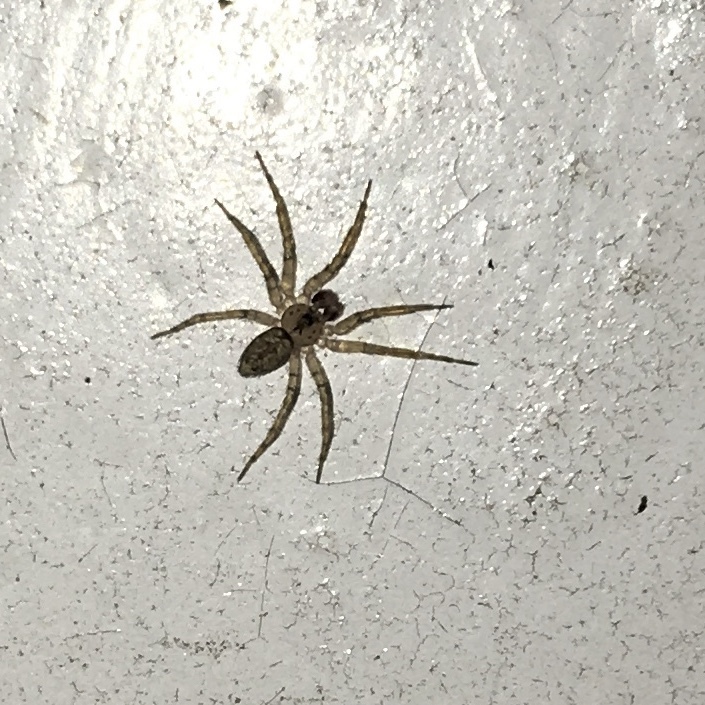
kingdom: Animalia
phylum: Arthropoda
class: Arachnida
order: Araneae
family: Oecobiidae
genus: Oecobius
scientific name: Oecobius navus
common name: Flatmesh weaver
